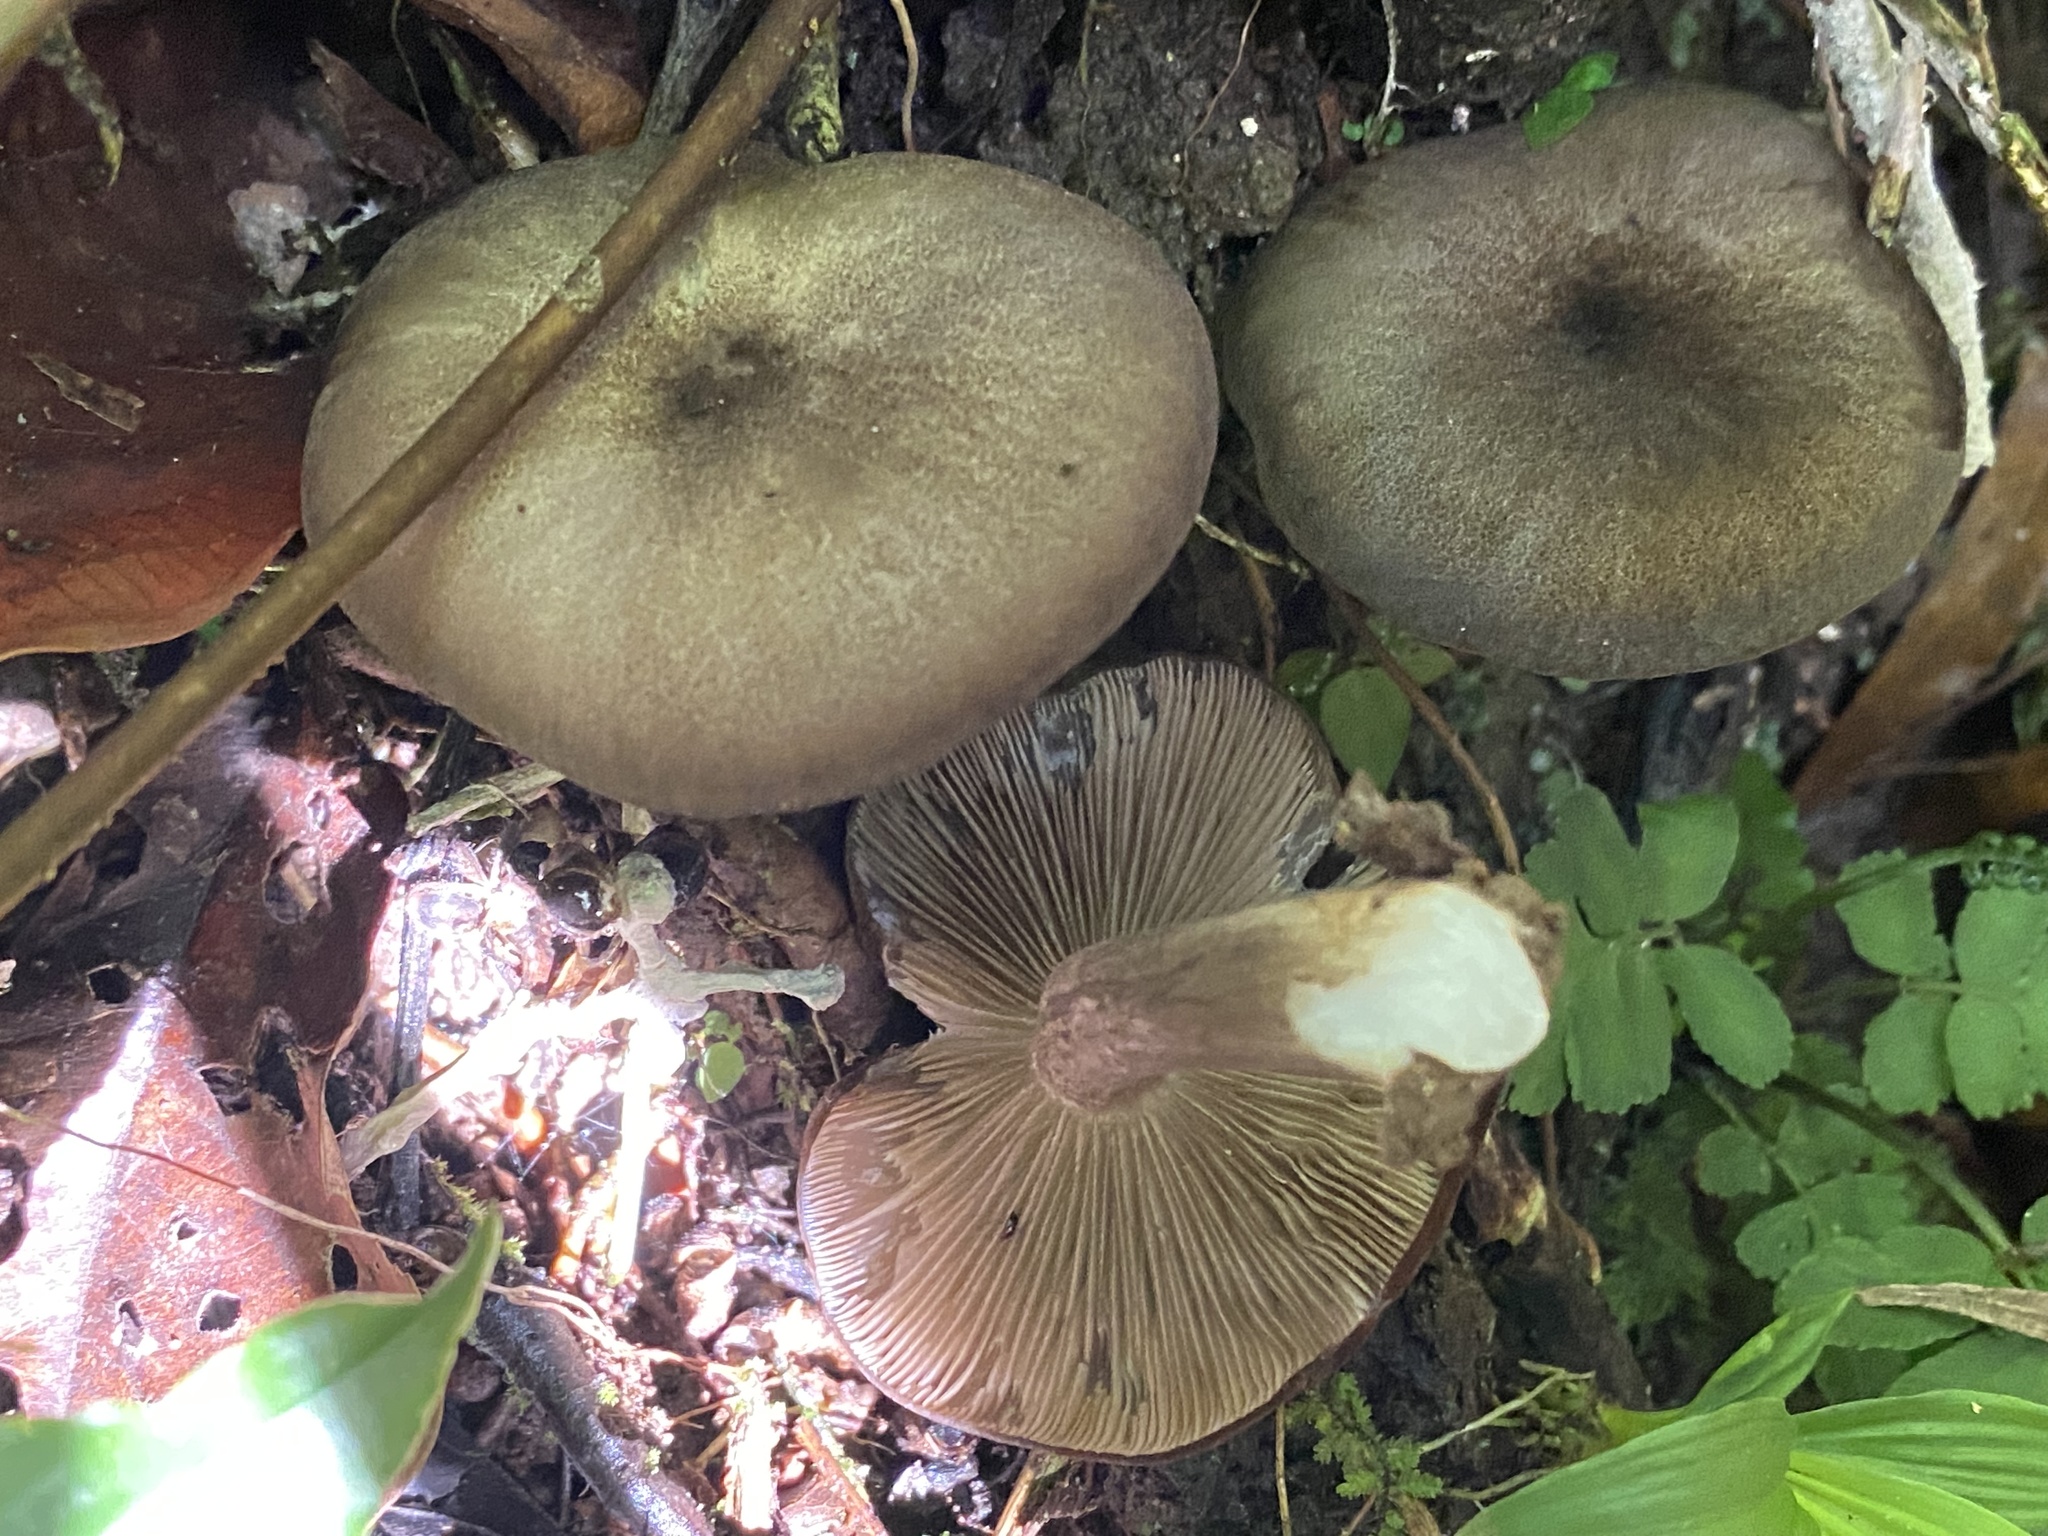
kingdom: Fungi
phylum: Basidiomycota
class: Agaricomycetes
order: Agaricales
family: Tricholomataceae
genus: Tricholomopsis
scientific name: Tricholomopsis tropica
